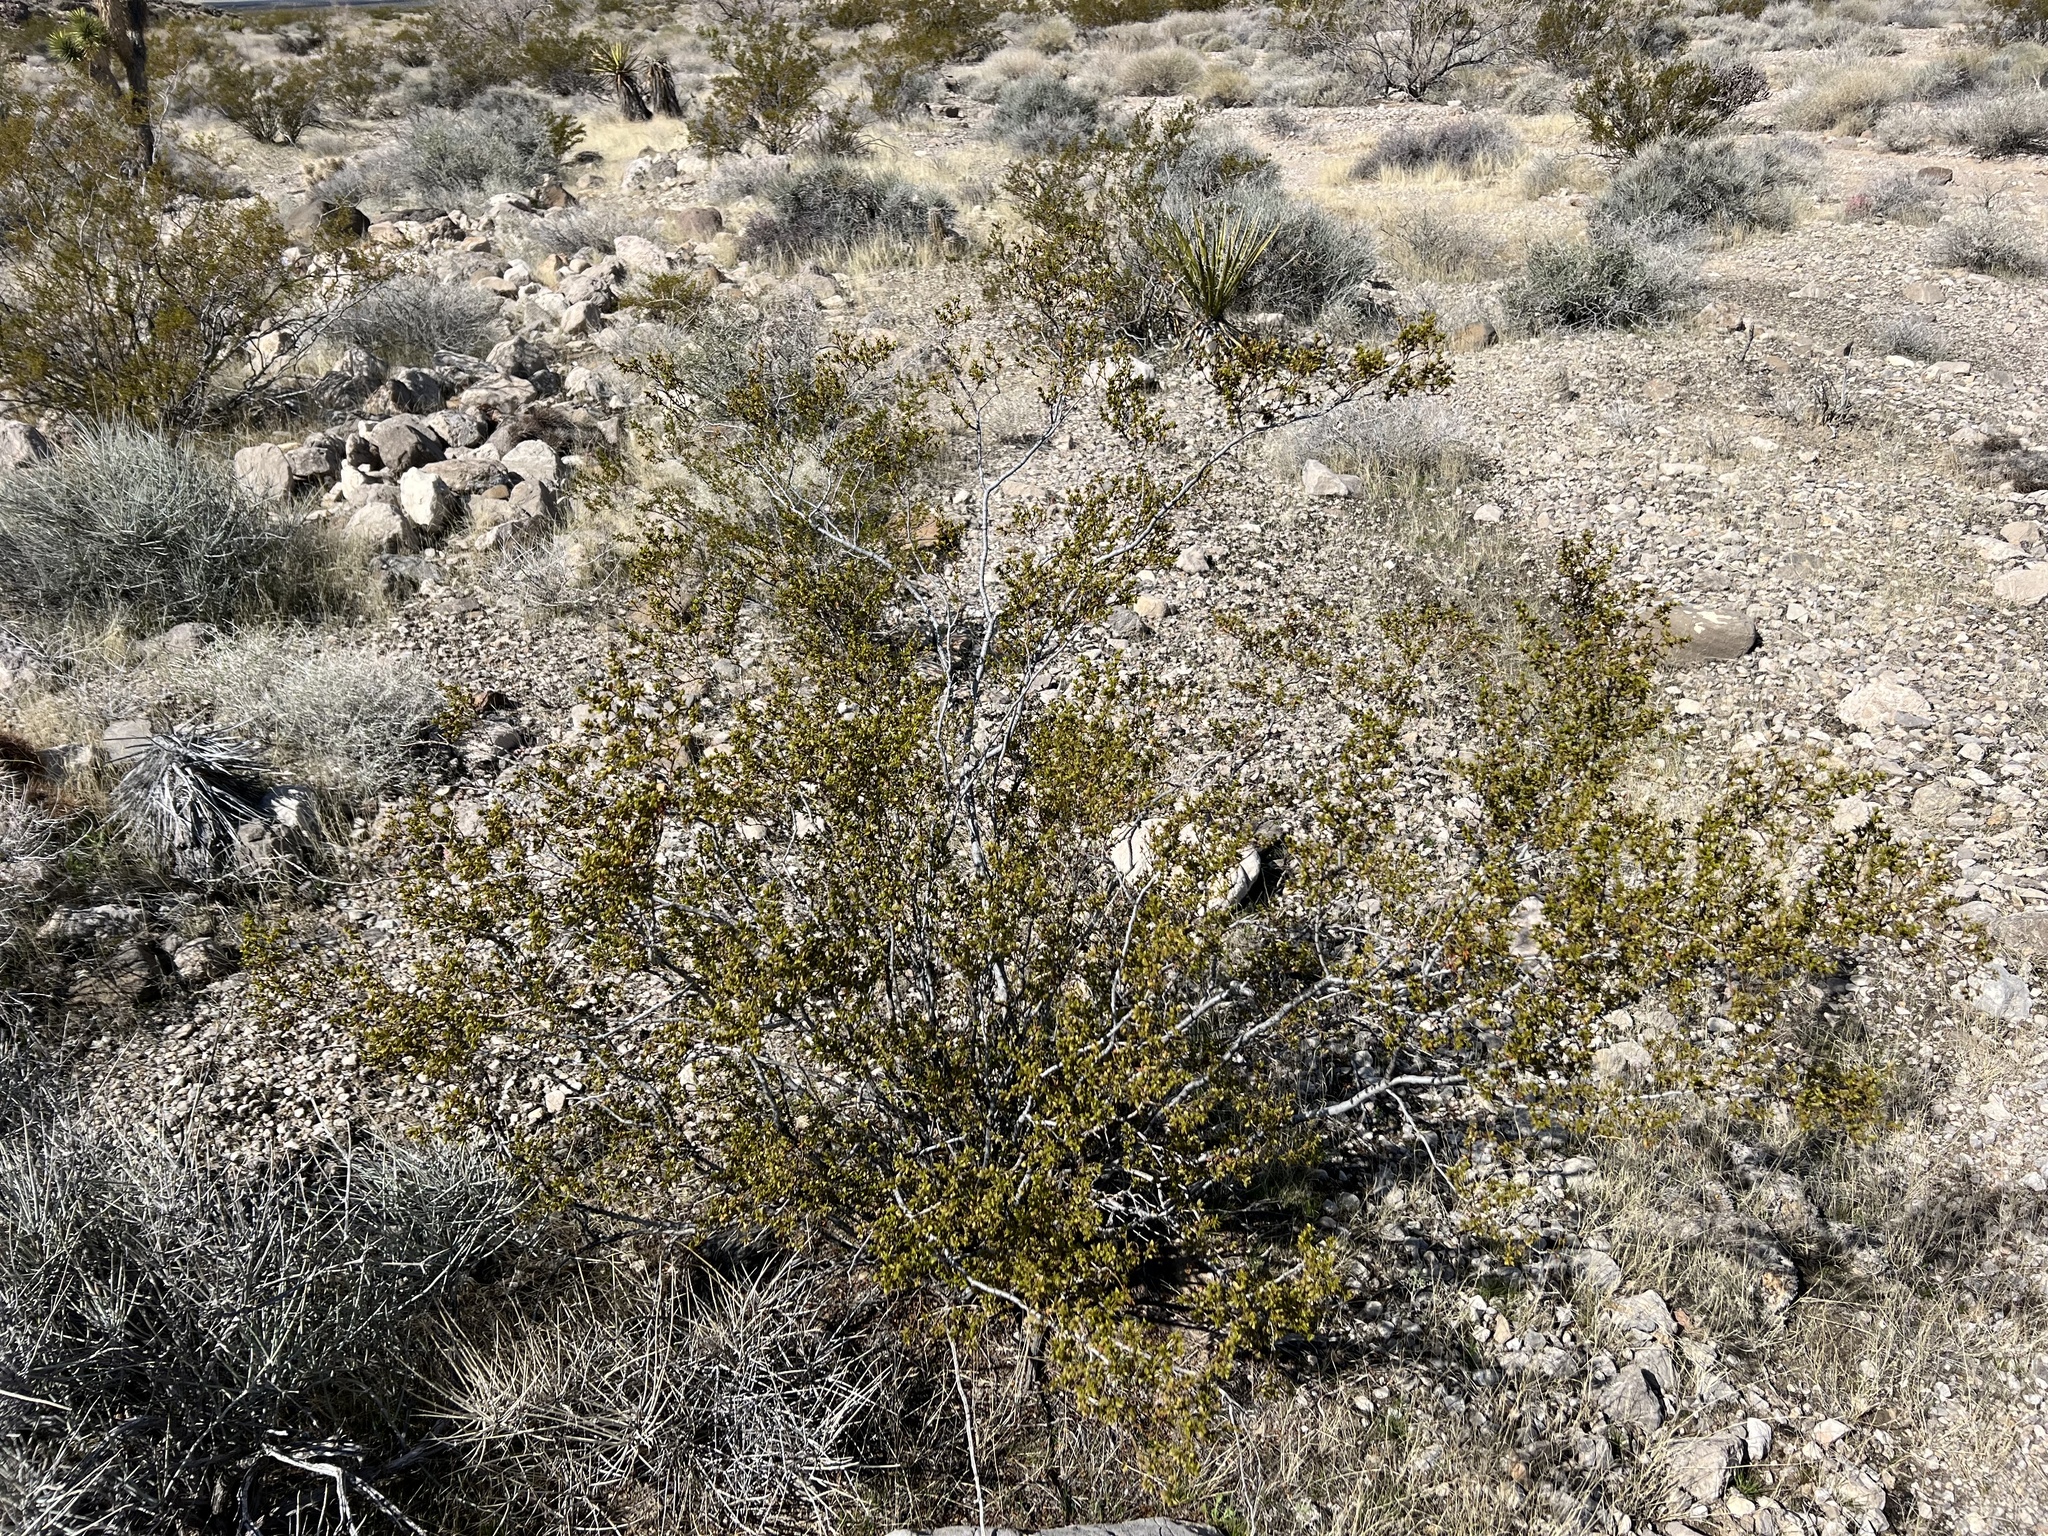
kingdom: Plantae
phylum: Tracheophyta
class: Magnoliopsida
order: Zygophyllales
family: Zygophyllaceae
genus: Larrea
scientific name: Larrea tridentata
